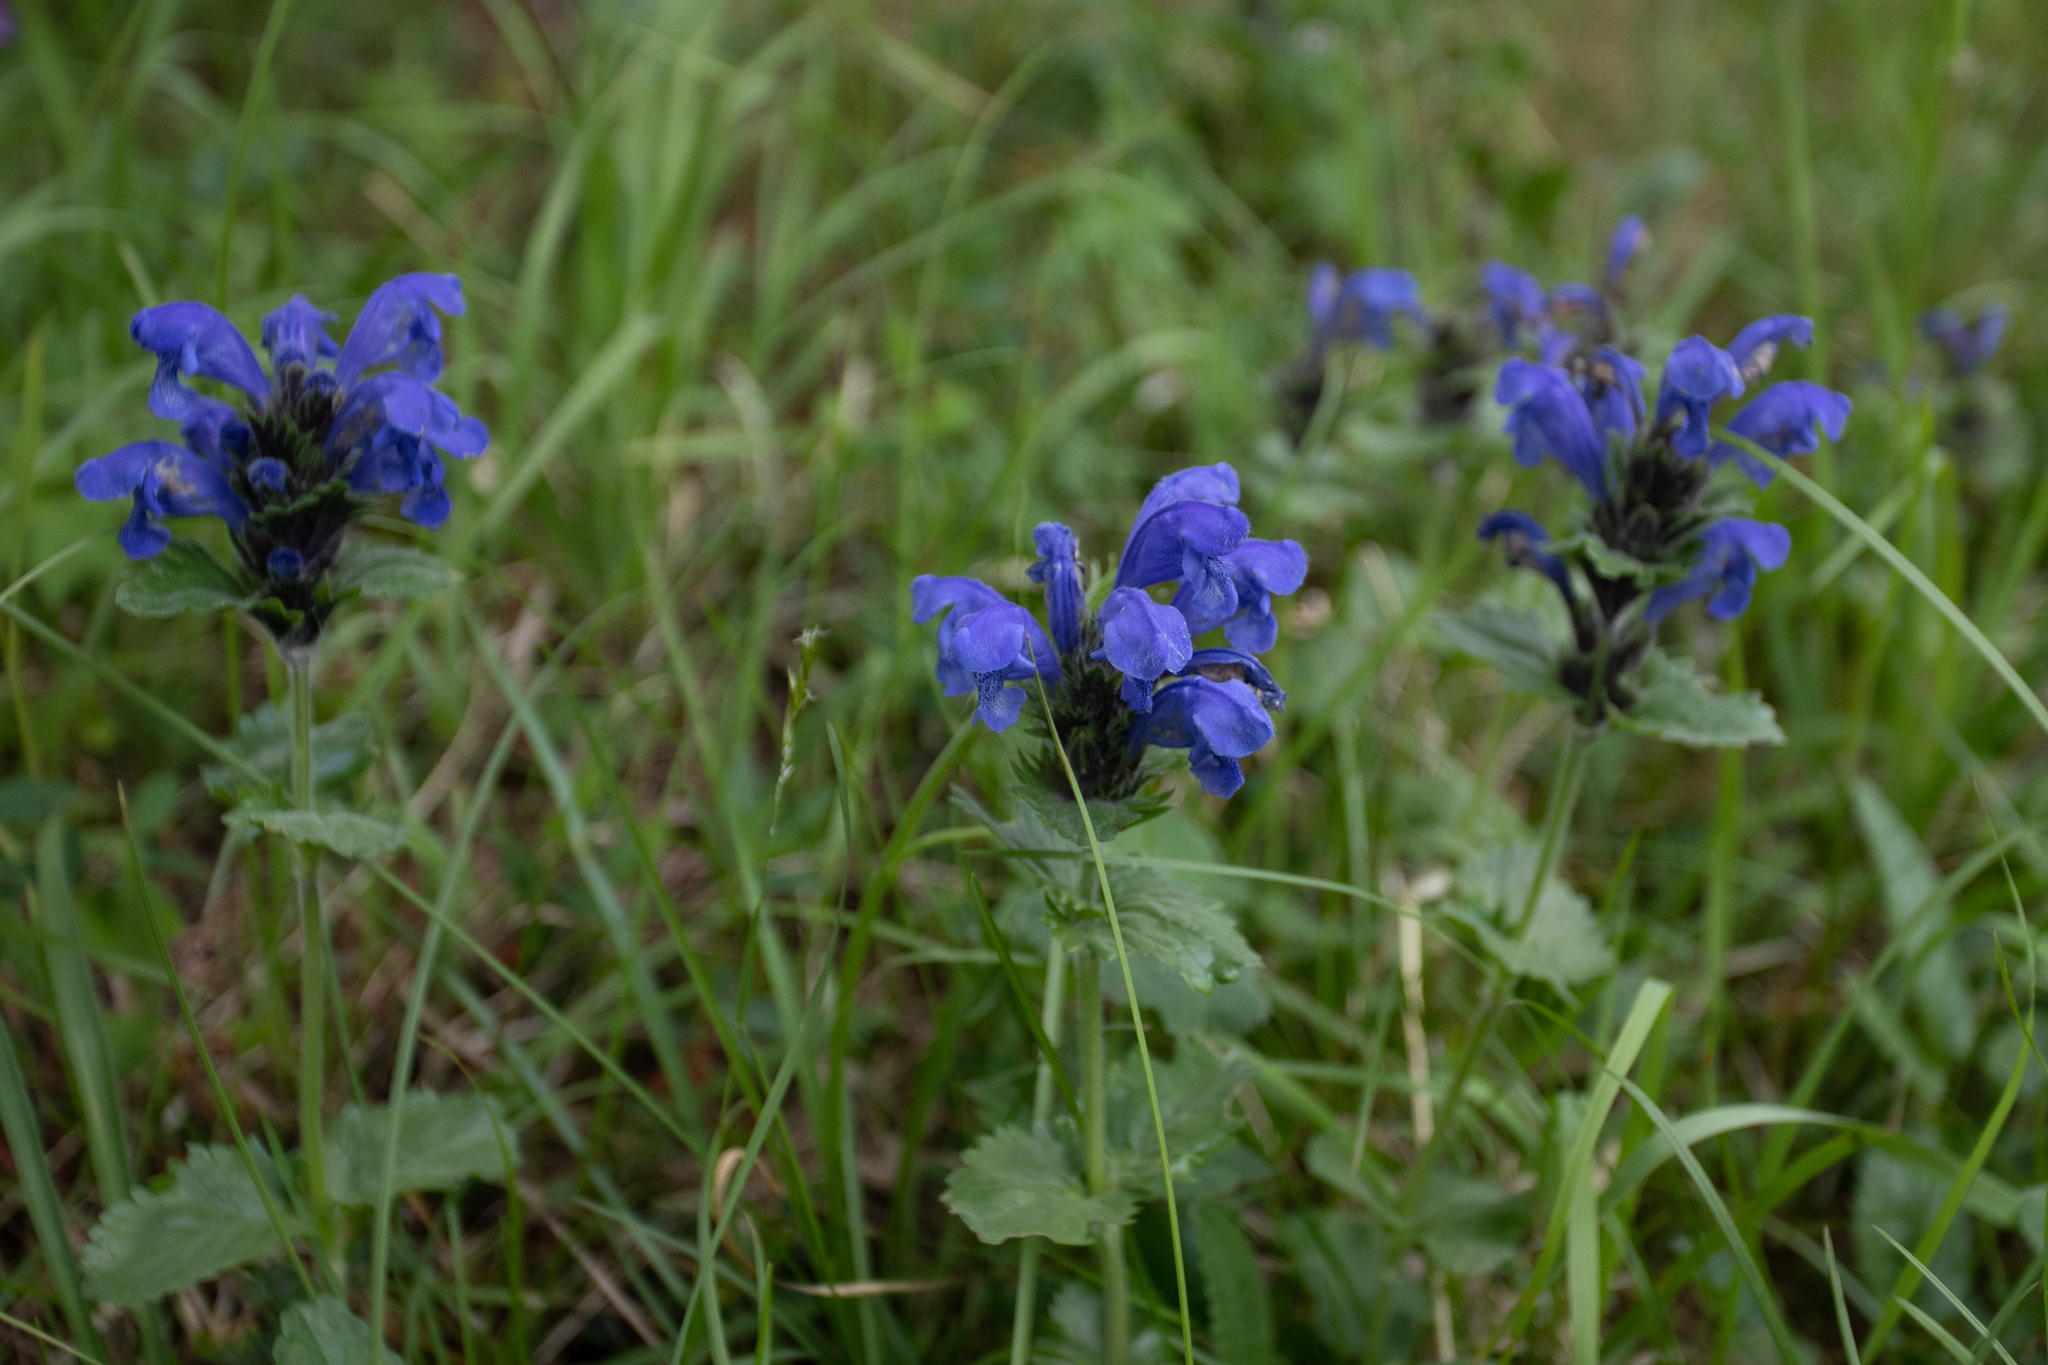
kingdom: Plantae
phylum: Tracheophyta
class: Magnoliopsida
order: Lamiales
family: Lamiaceae
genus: Dracocephalum
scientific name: Dracocephalum grandiflorum
